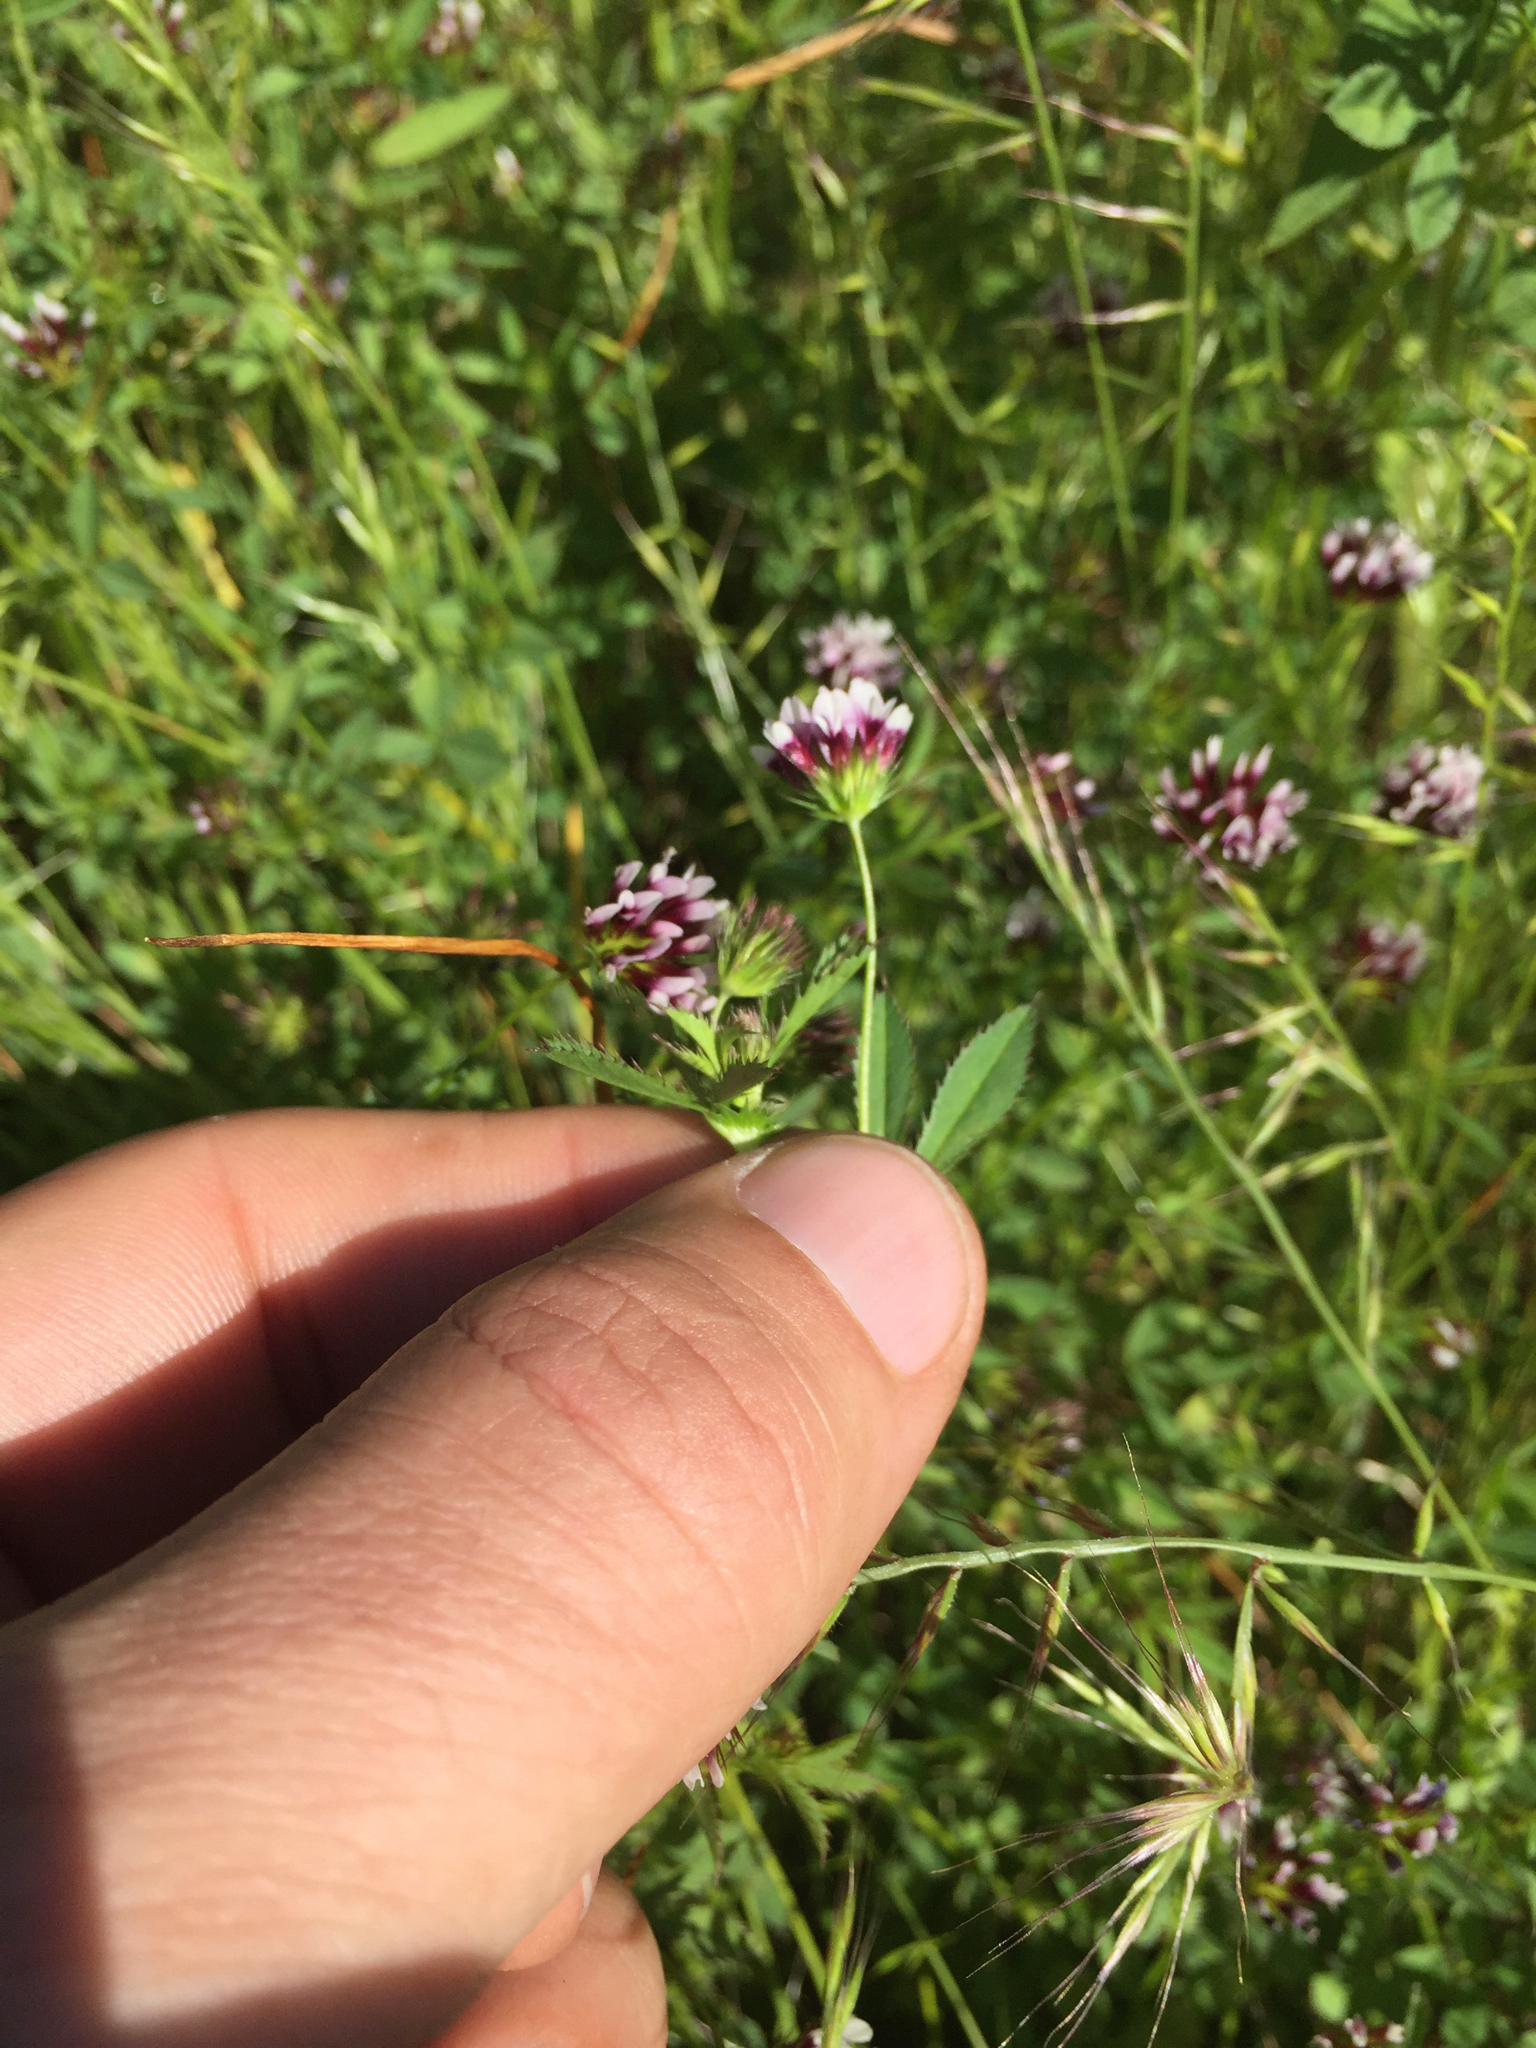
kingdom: Plantae
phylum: Tracheophyta
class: Magnoliopsida
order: Fabales
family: Fabaceae
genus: Trifolium
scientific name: Trifolium variegatum
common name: Whitetip clover
